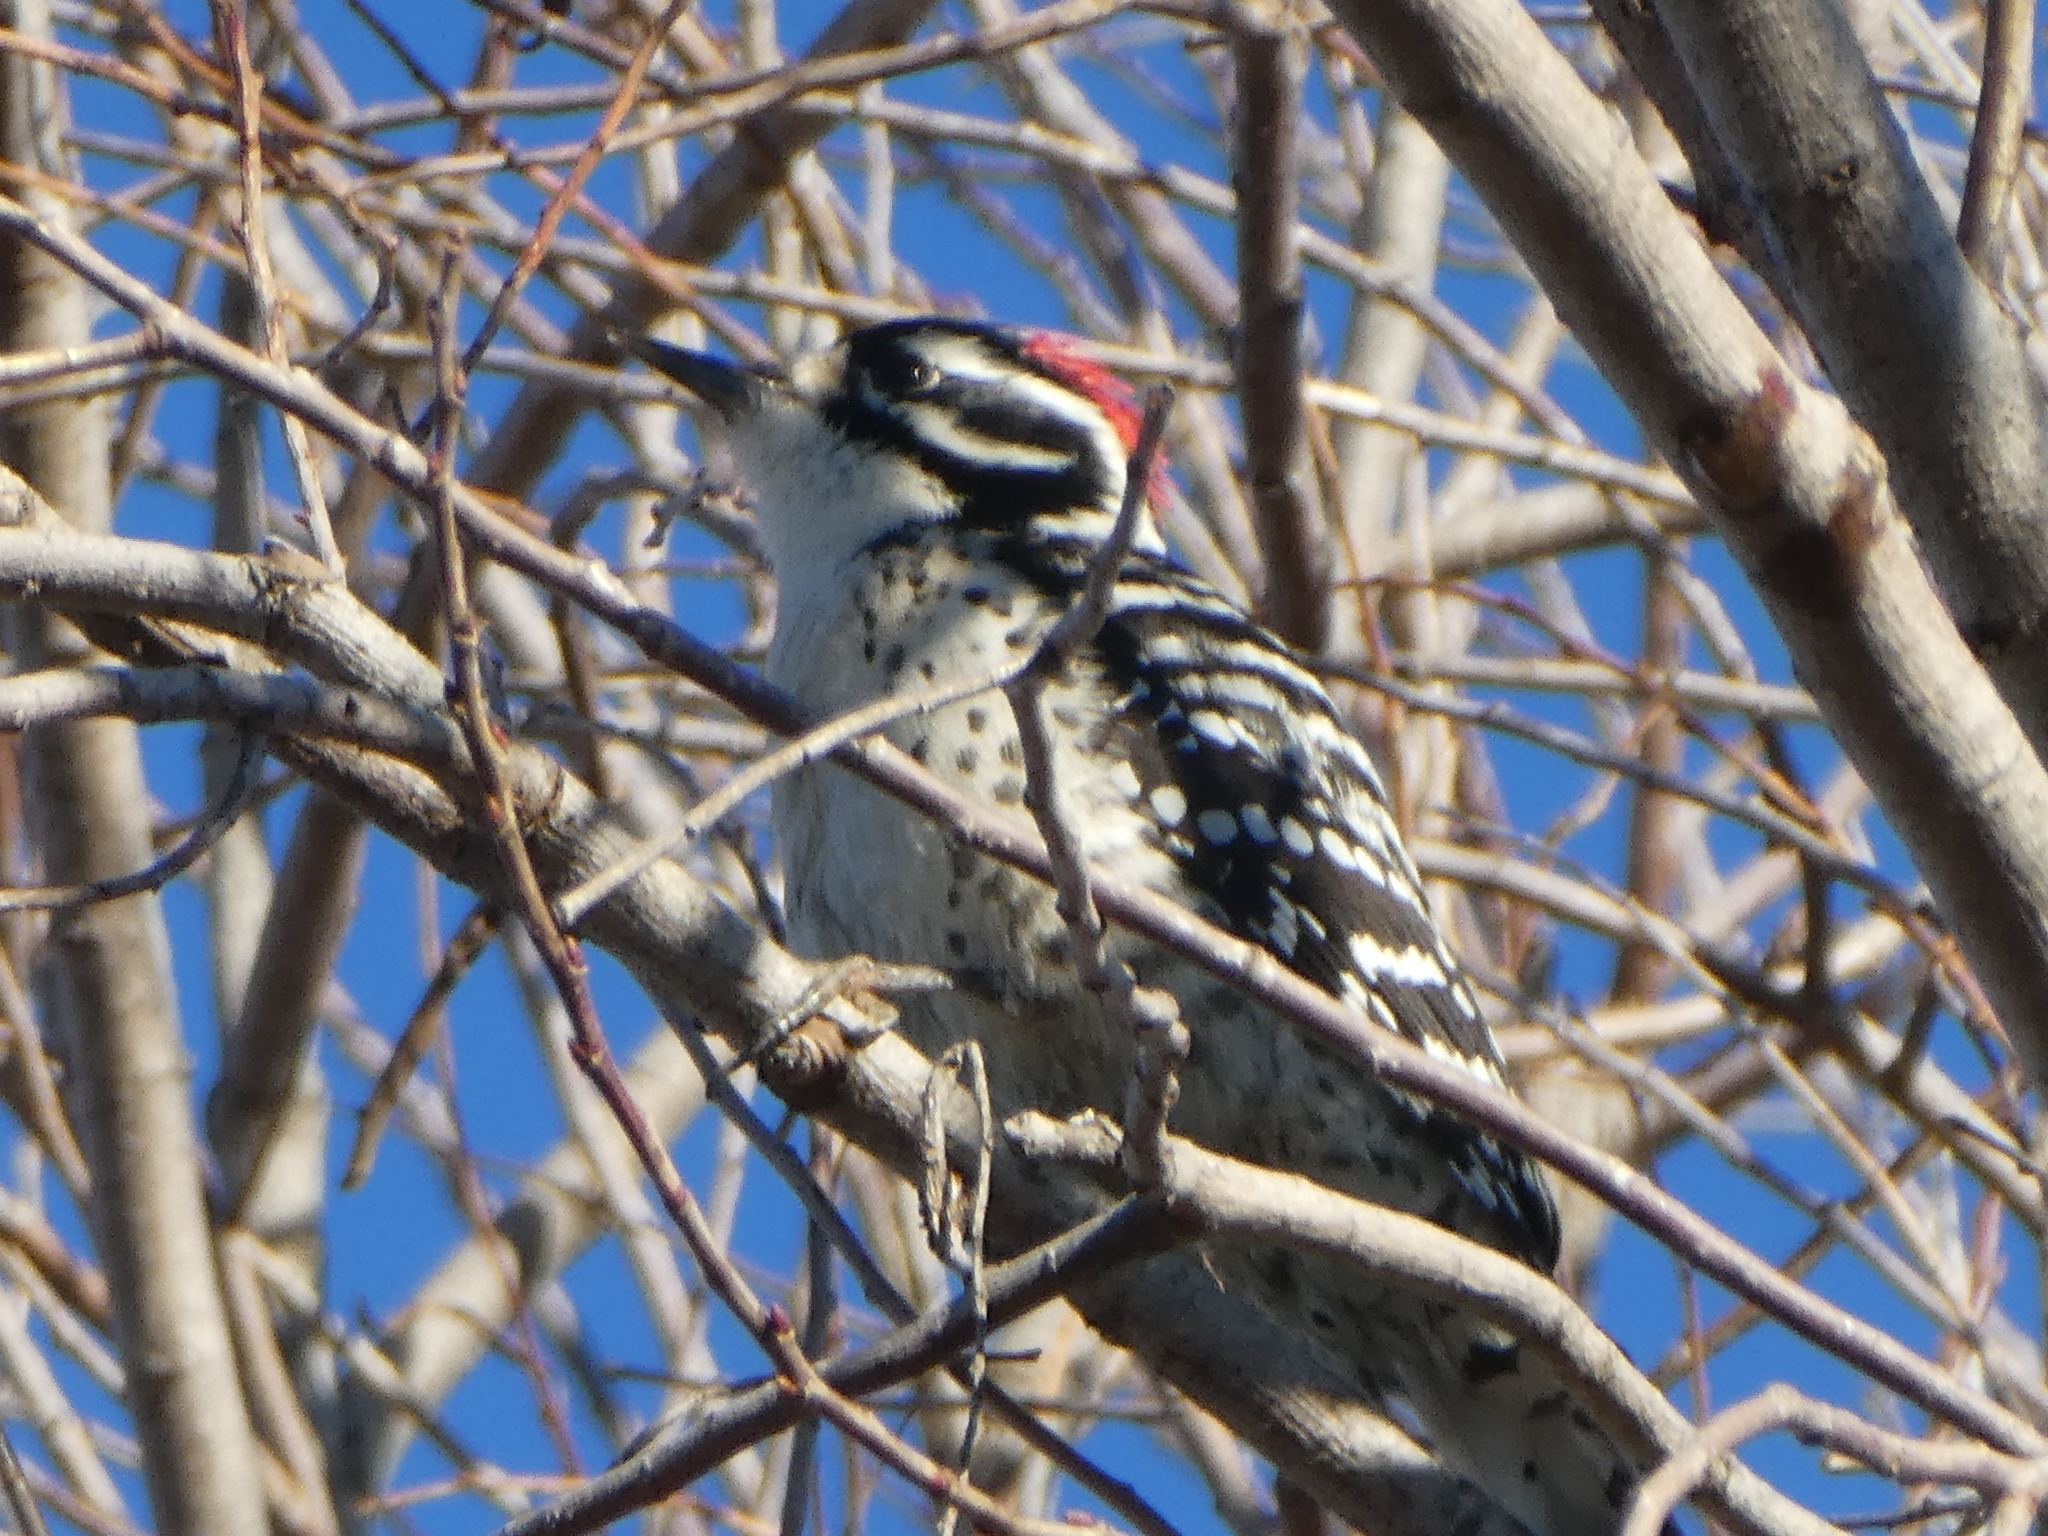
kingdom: Animalia
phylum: Chordata
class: Aves
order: Piciformes
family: Picidae
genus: Dryobates
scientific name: Dryobates nuttallii
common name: Nuttall's woodpecker
